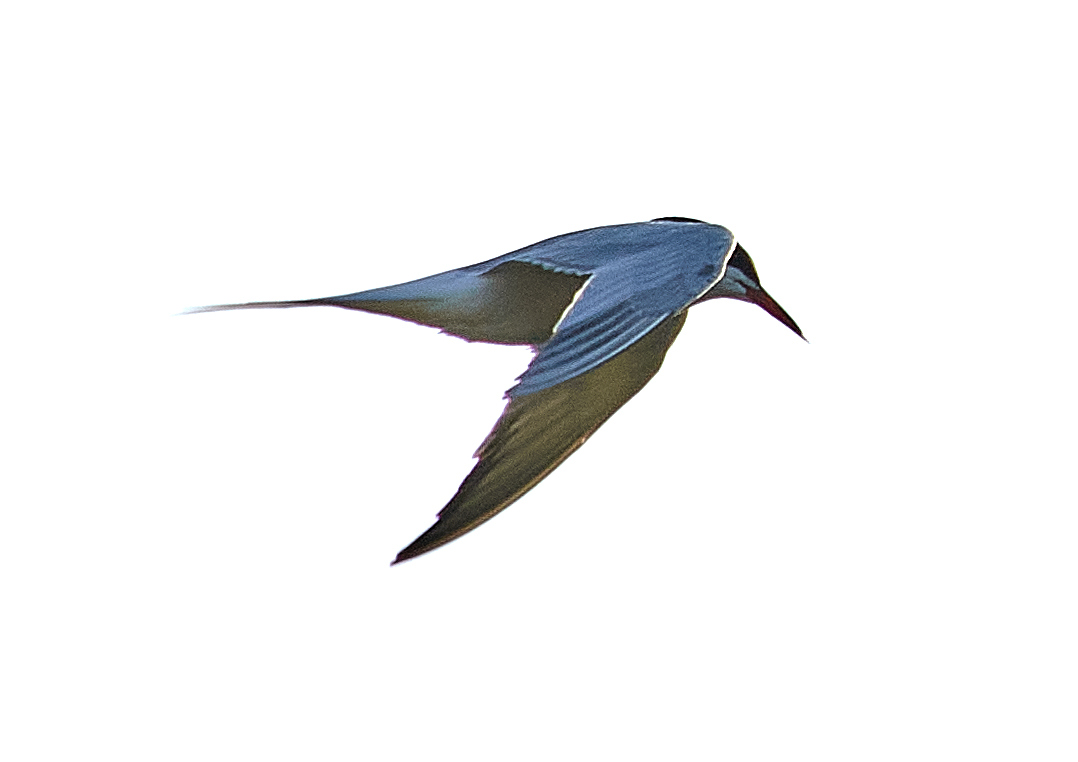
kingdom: Animalia
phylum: Chordata
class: Aves
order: Charadriiformes
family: Laridae
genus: Sterna
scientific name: Sterna hirundo
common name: Common tern
